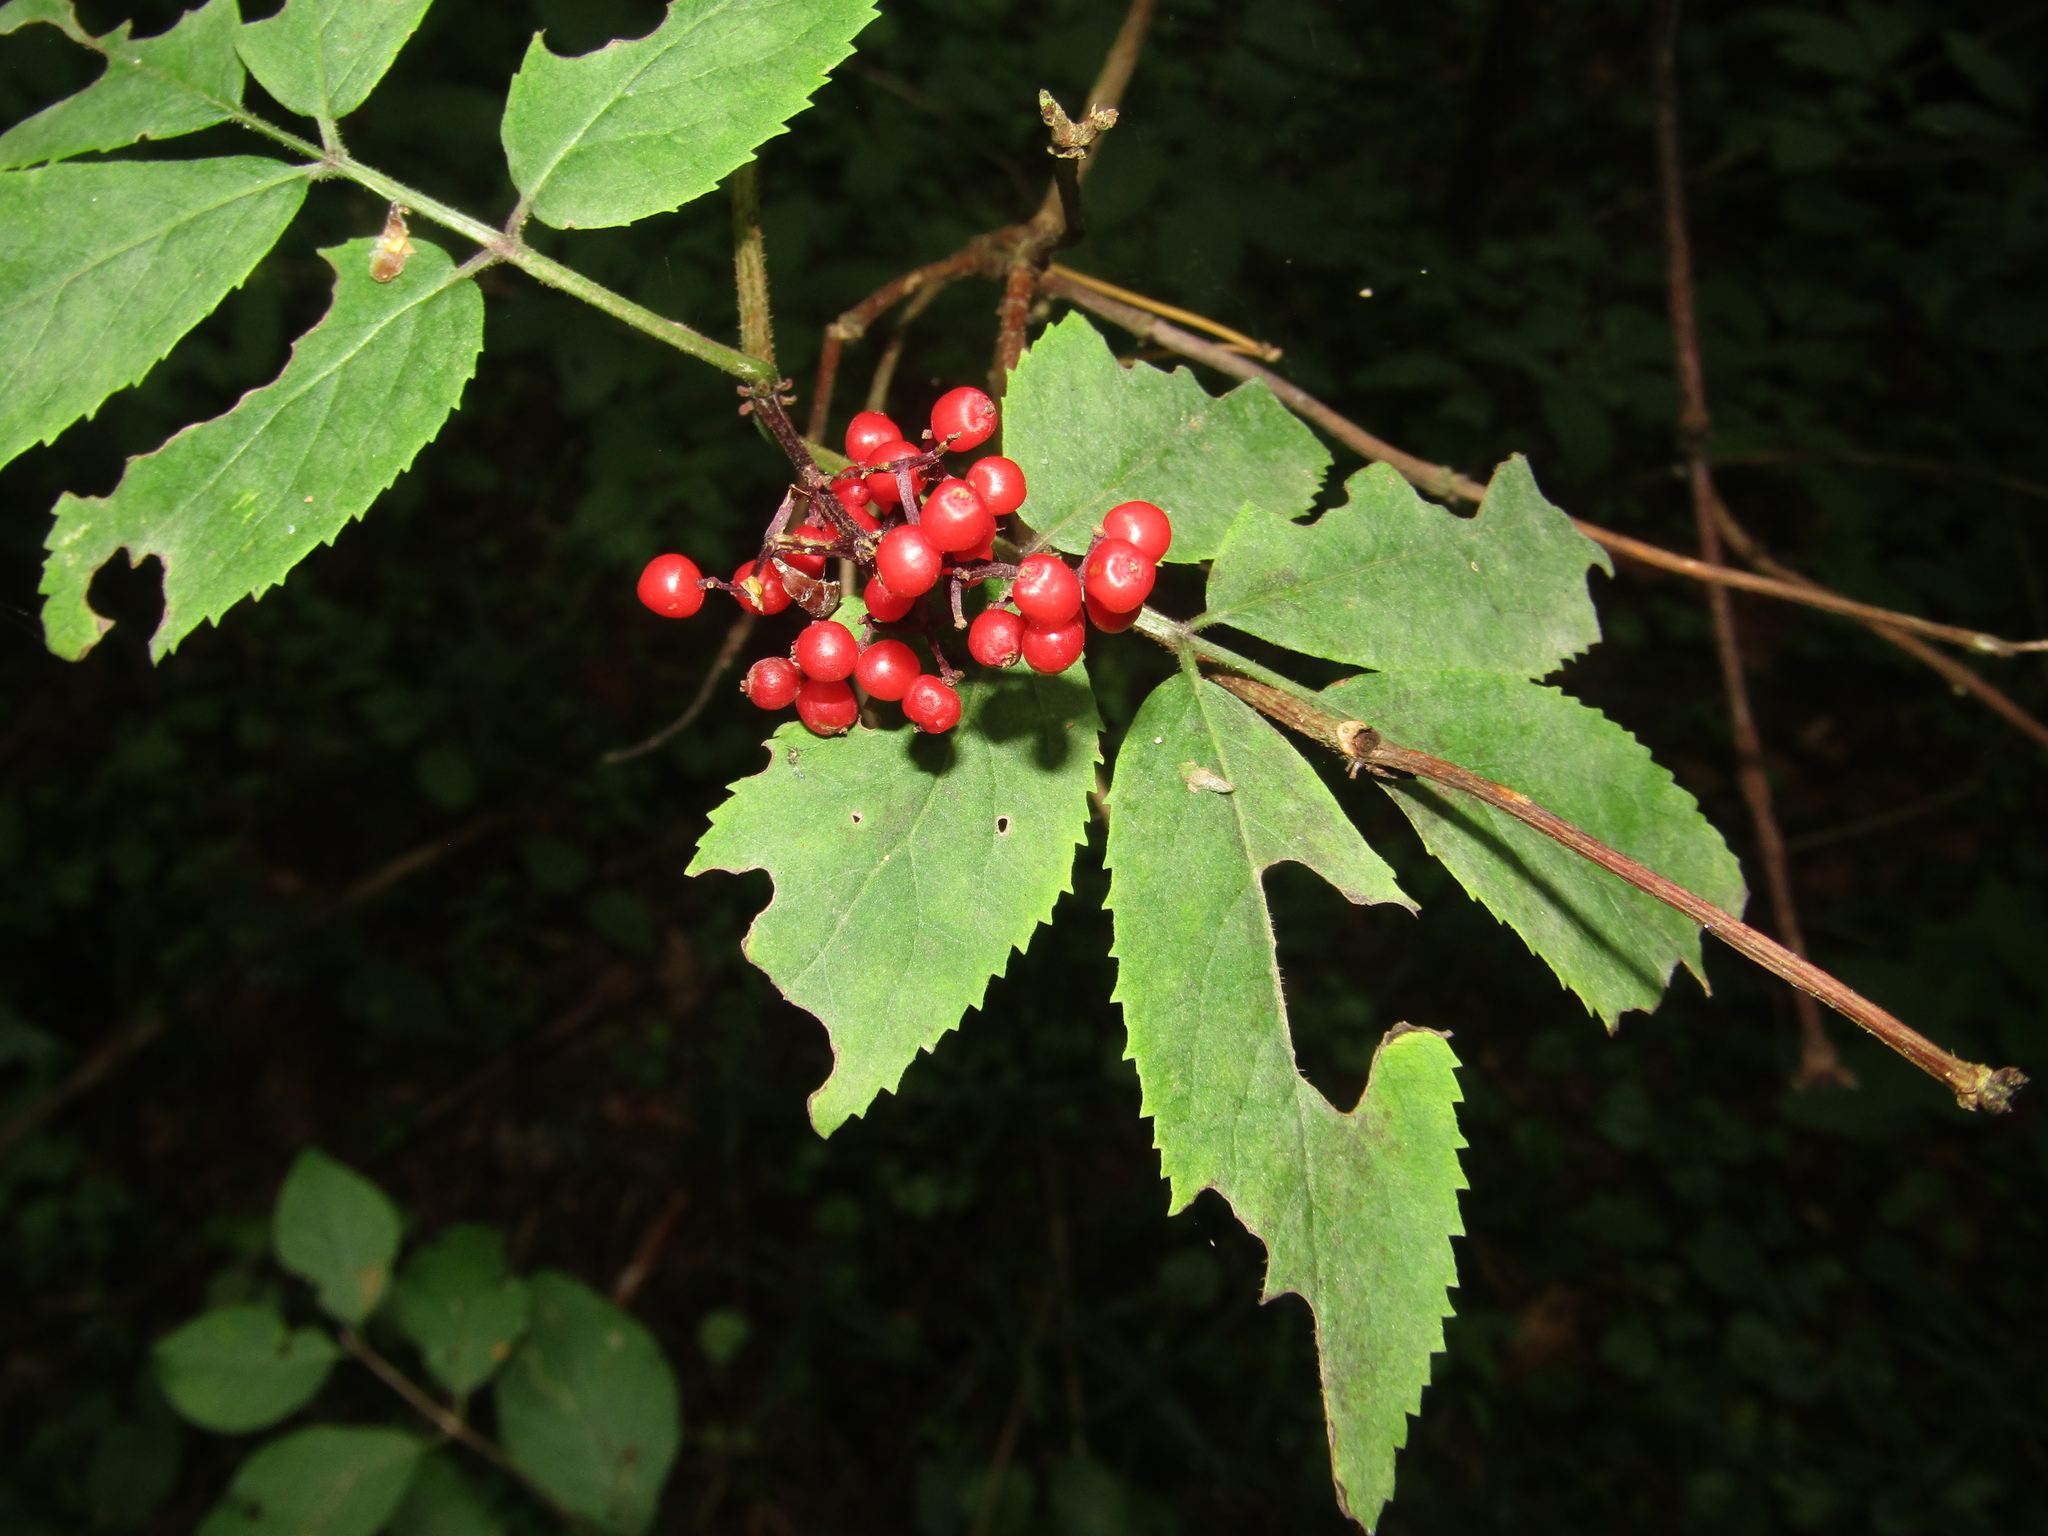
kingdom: Plantae
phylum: Tracheophyta
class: Magnoliopsida
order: Dipsacales
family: Viburnaceae
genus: Sambucus
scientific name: Sambucus racemosa
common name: Red-berried elder
